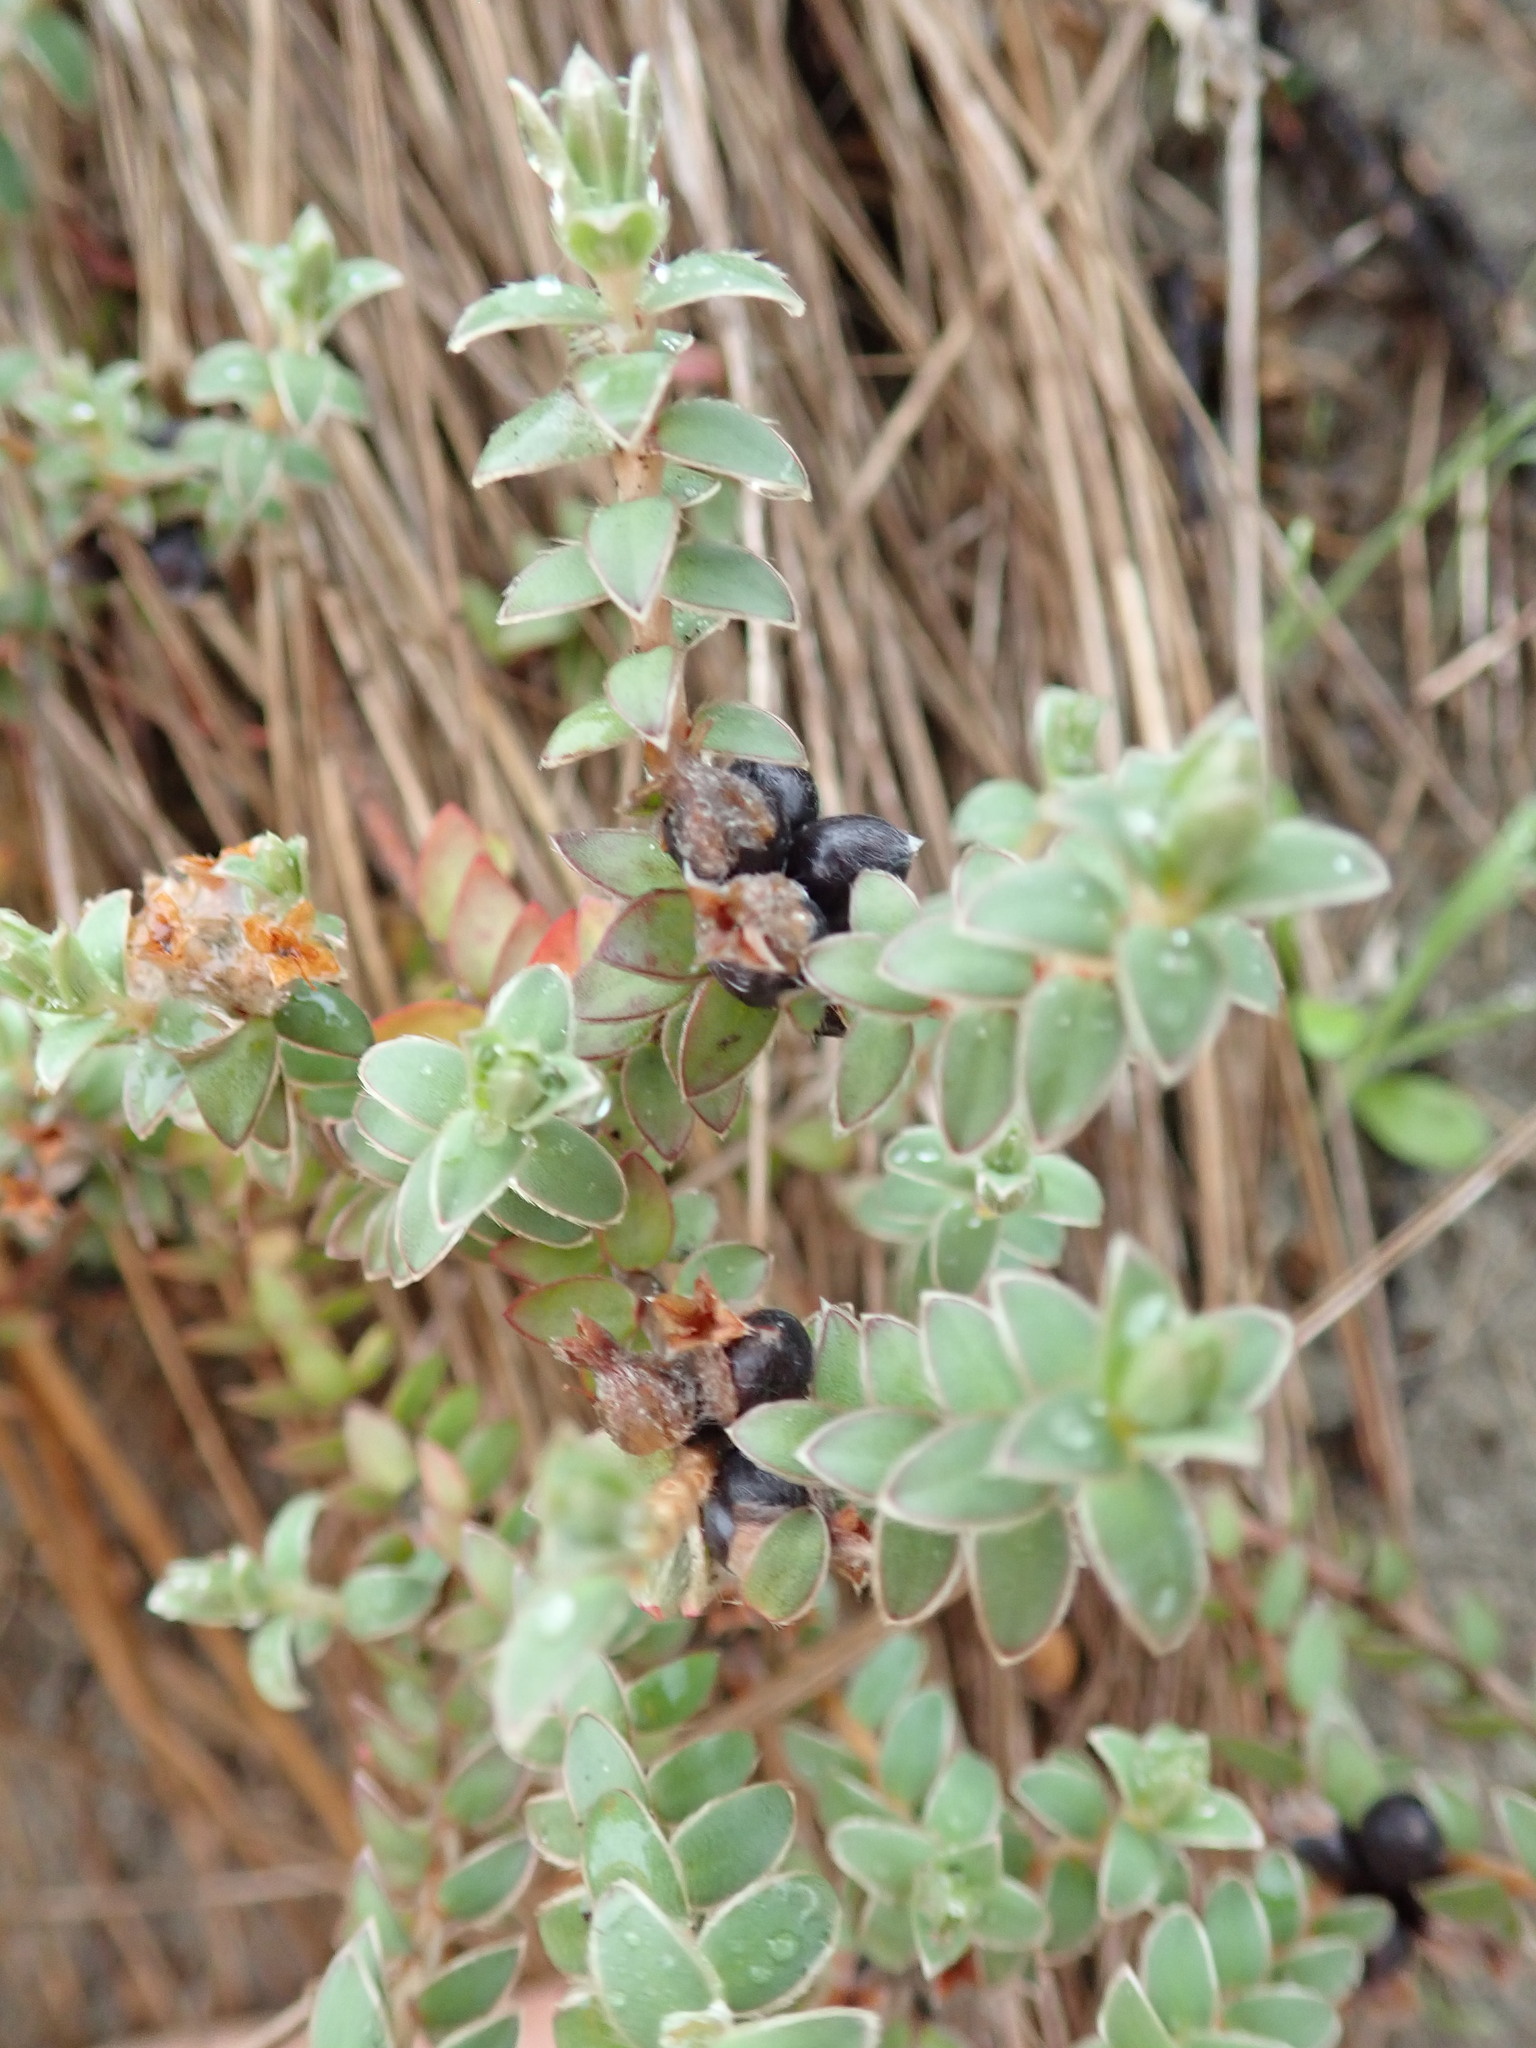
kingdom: Plantae
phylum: Tracheophyta
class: Magnoliopsida
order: Malvales
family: Thymelaeaceae
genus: Pimelea
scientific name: Pimelea villosa
